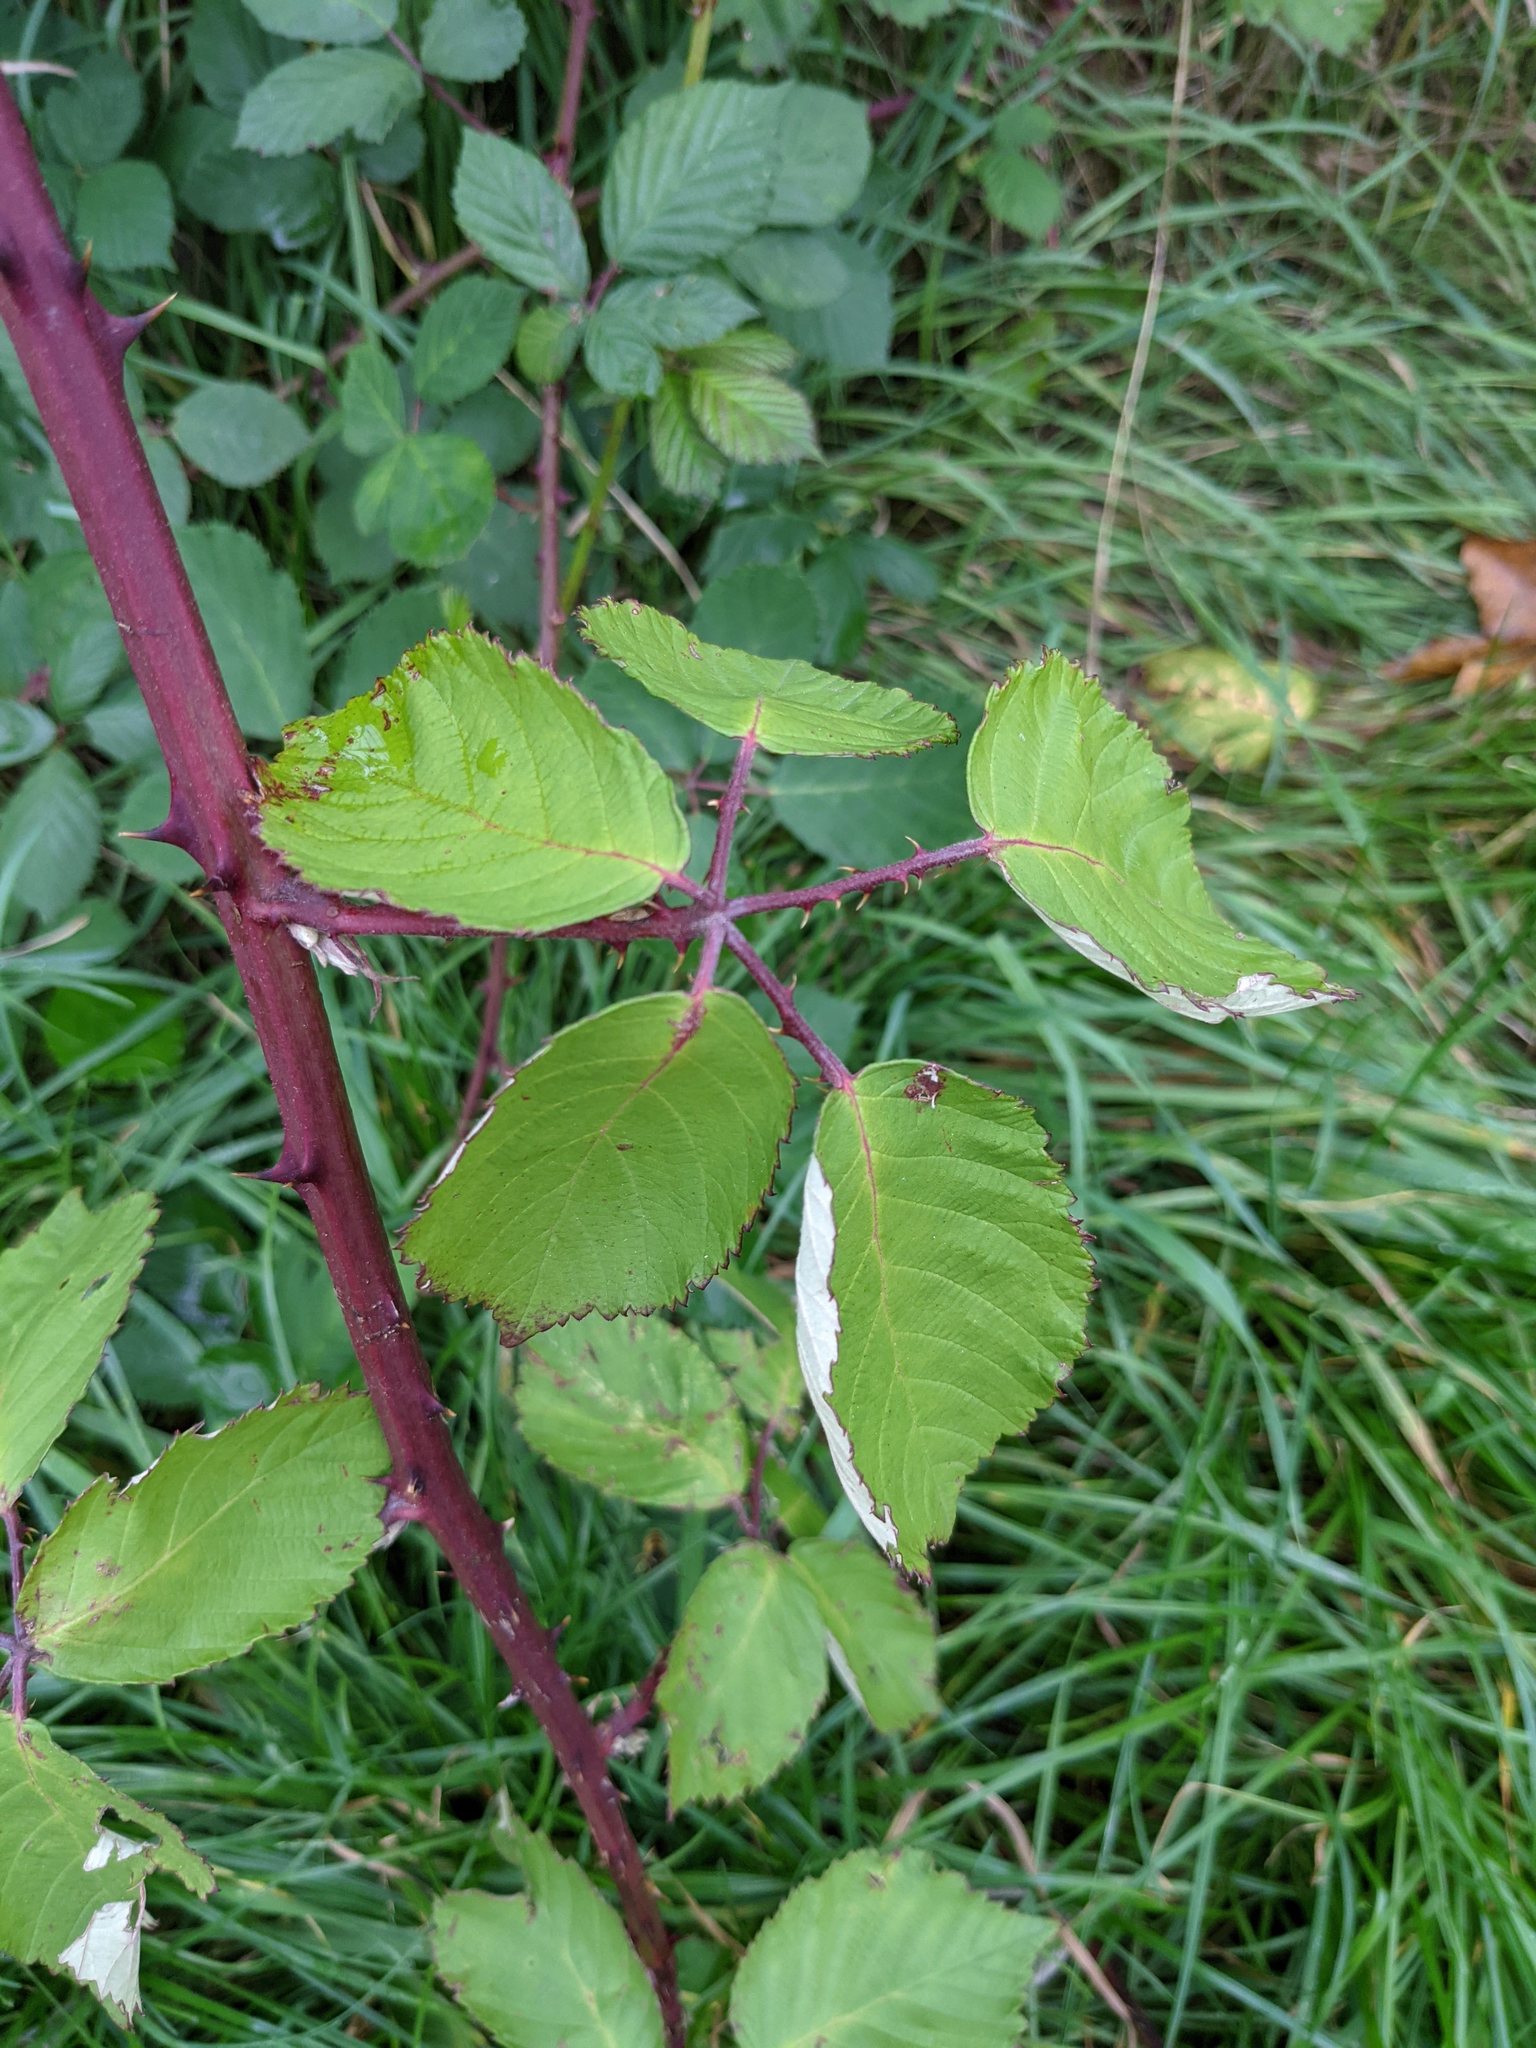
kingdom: Plantae
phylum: Tracheophyta
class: Magnoliopsida
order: Rosales
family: Rosaceae
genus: Rubus
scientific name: Rubus armeniacus
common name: Himalayan blackberry
